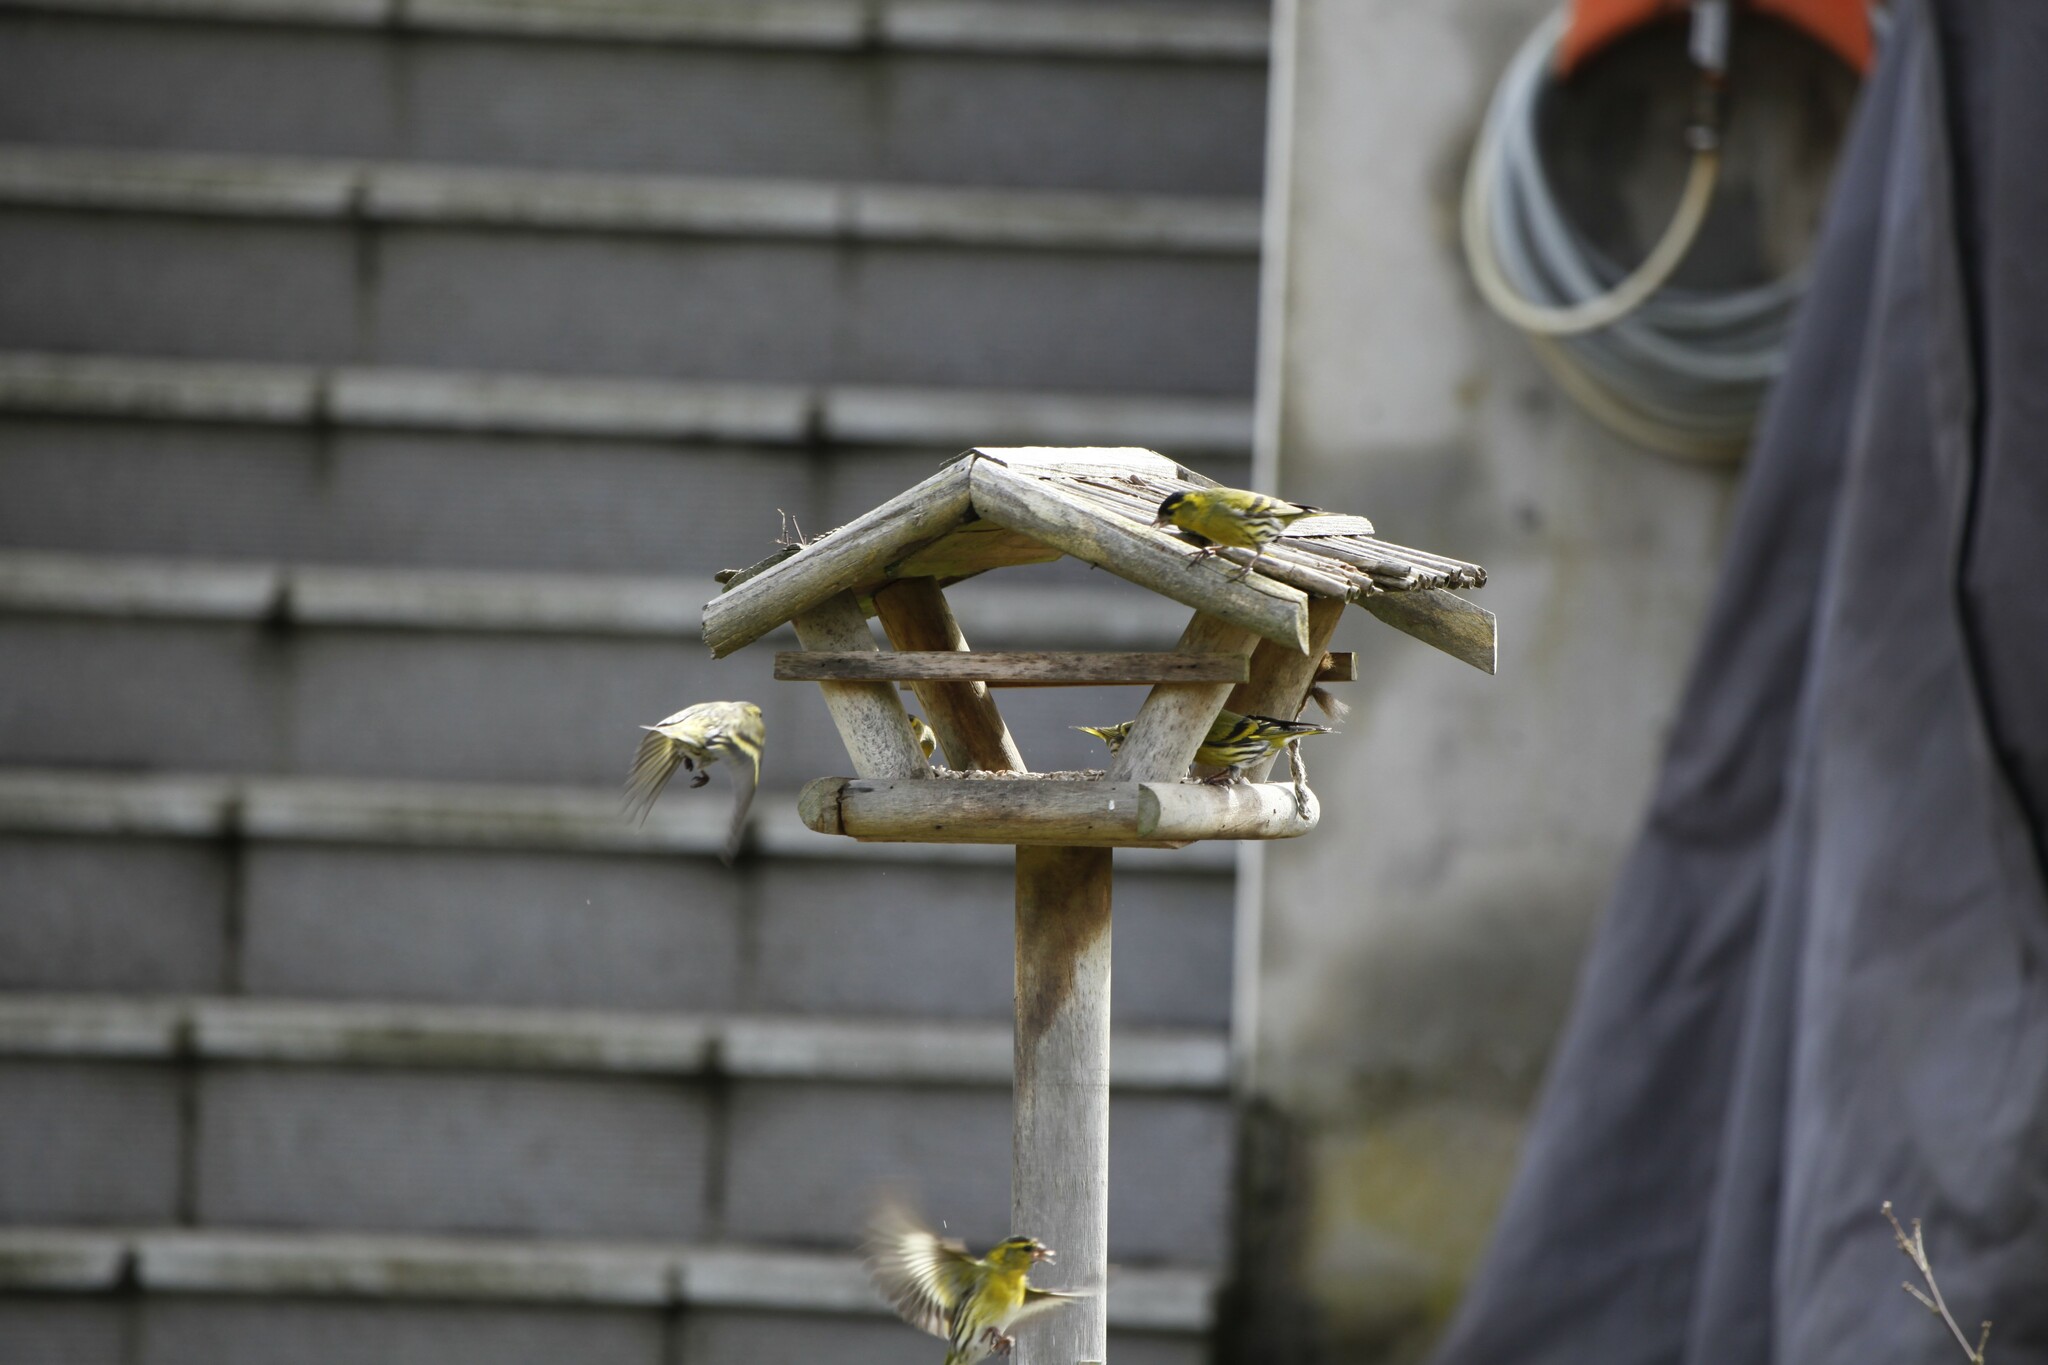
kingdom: Animalia
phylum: Chordata
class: Aves
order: Passeriformes
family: Fringillidae
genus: Spinus
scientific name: Spinus spinus
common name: Eurasian siskin
